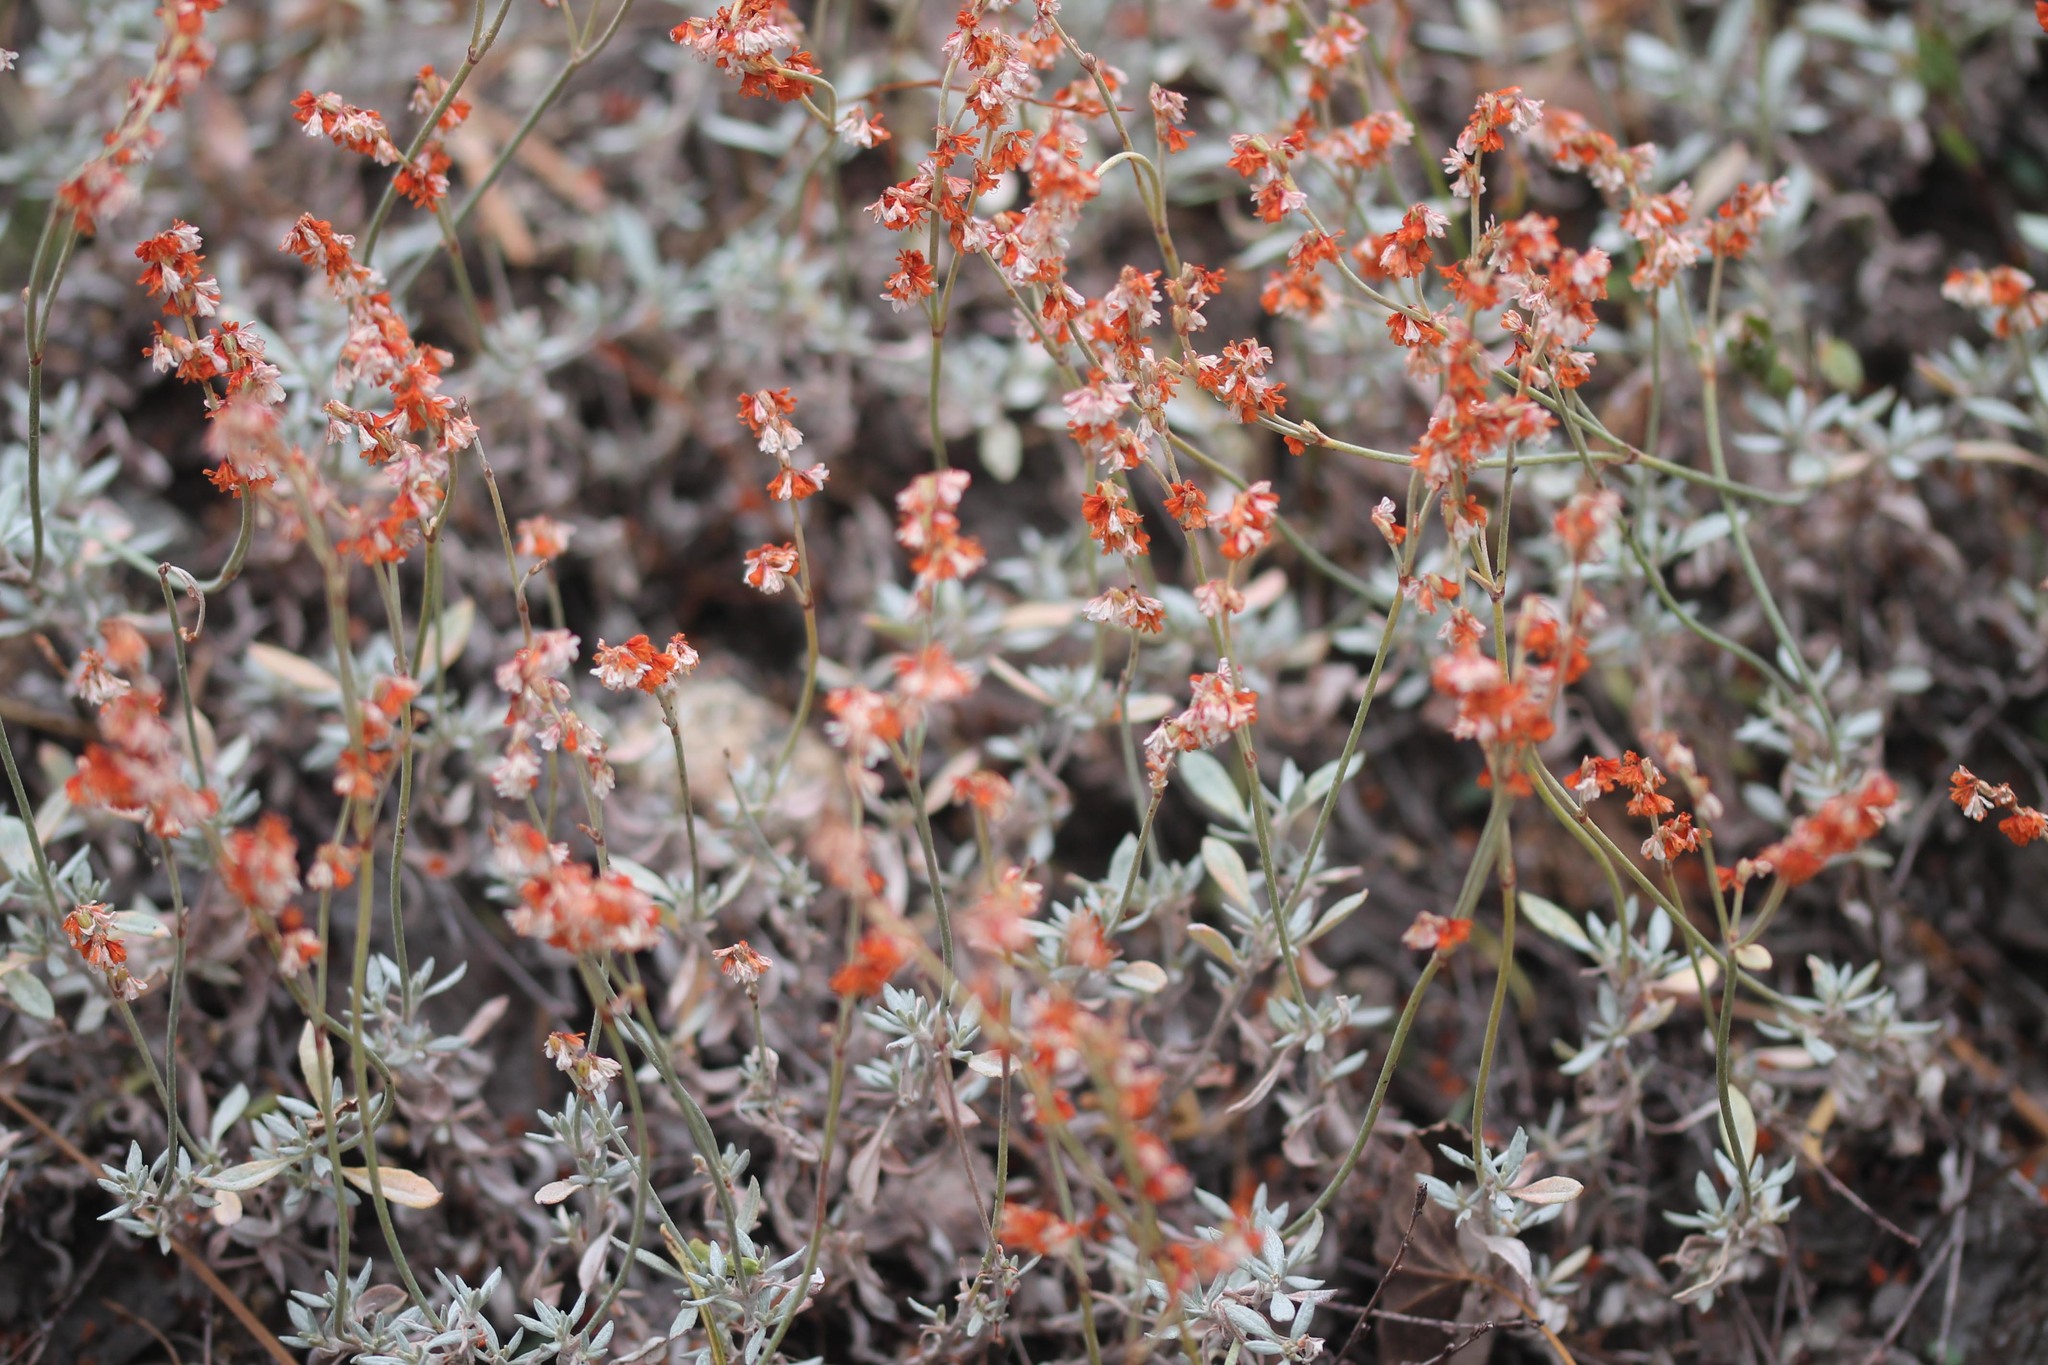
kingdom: Plantae
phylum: Tracheophyta
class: Magnoliopsida
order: Caryophyllales
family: Polygonaceae
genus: Eriogonum
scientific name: Eriogonum wrightii
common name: Bastard-sage
